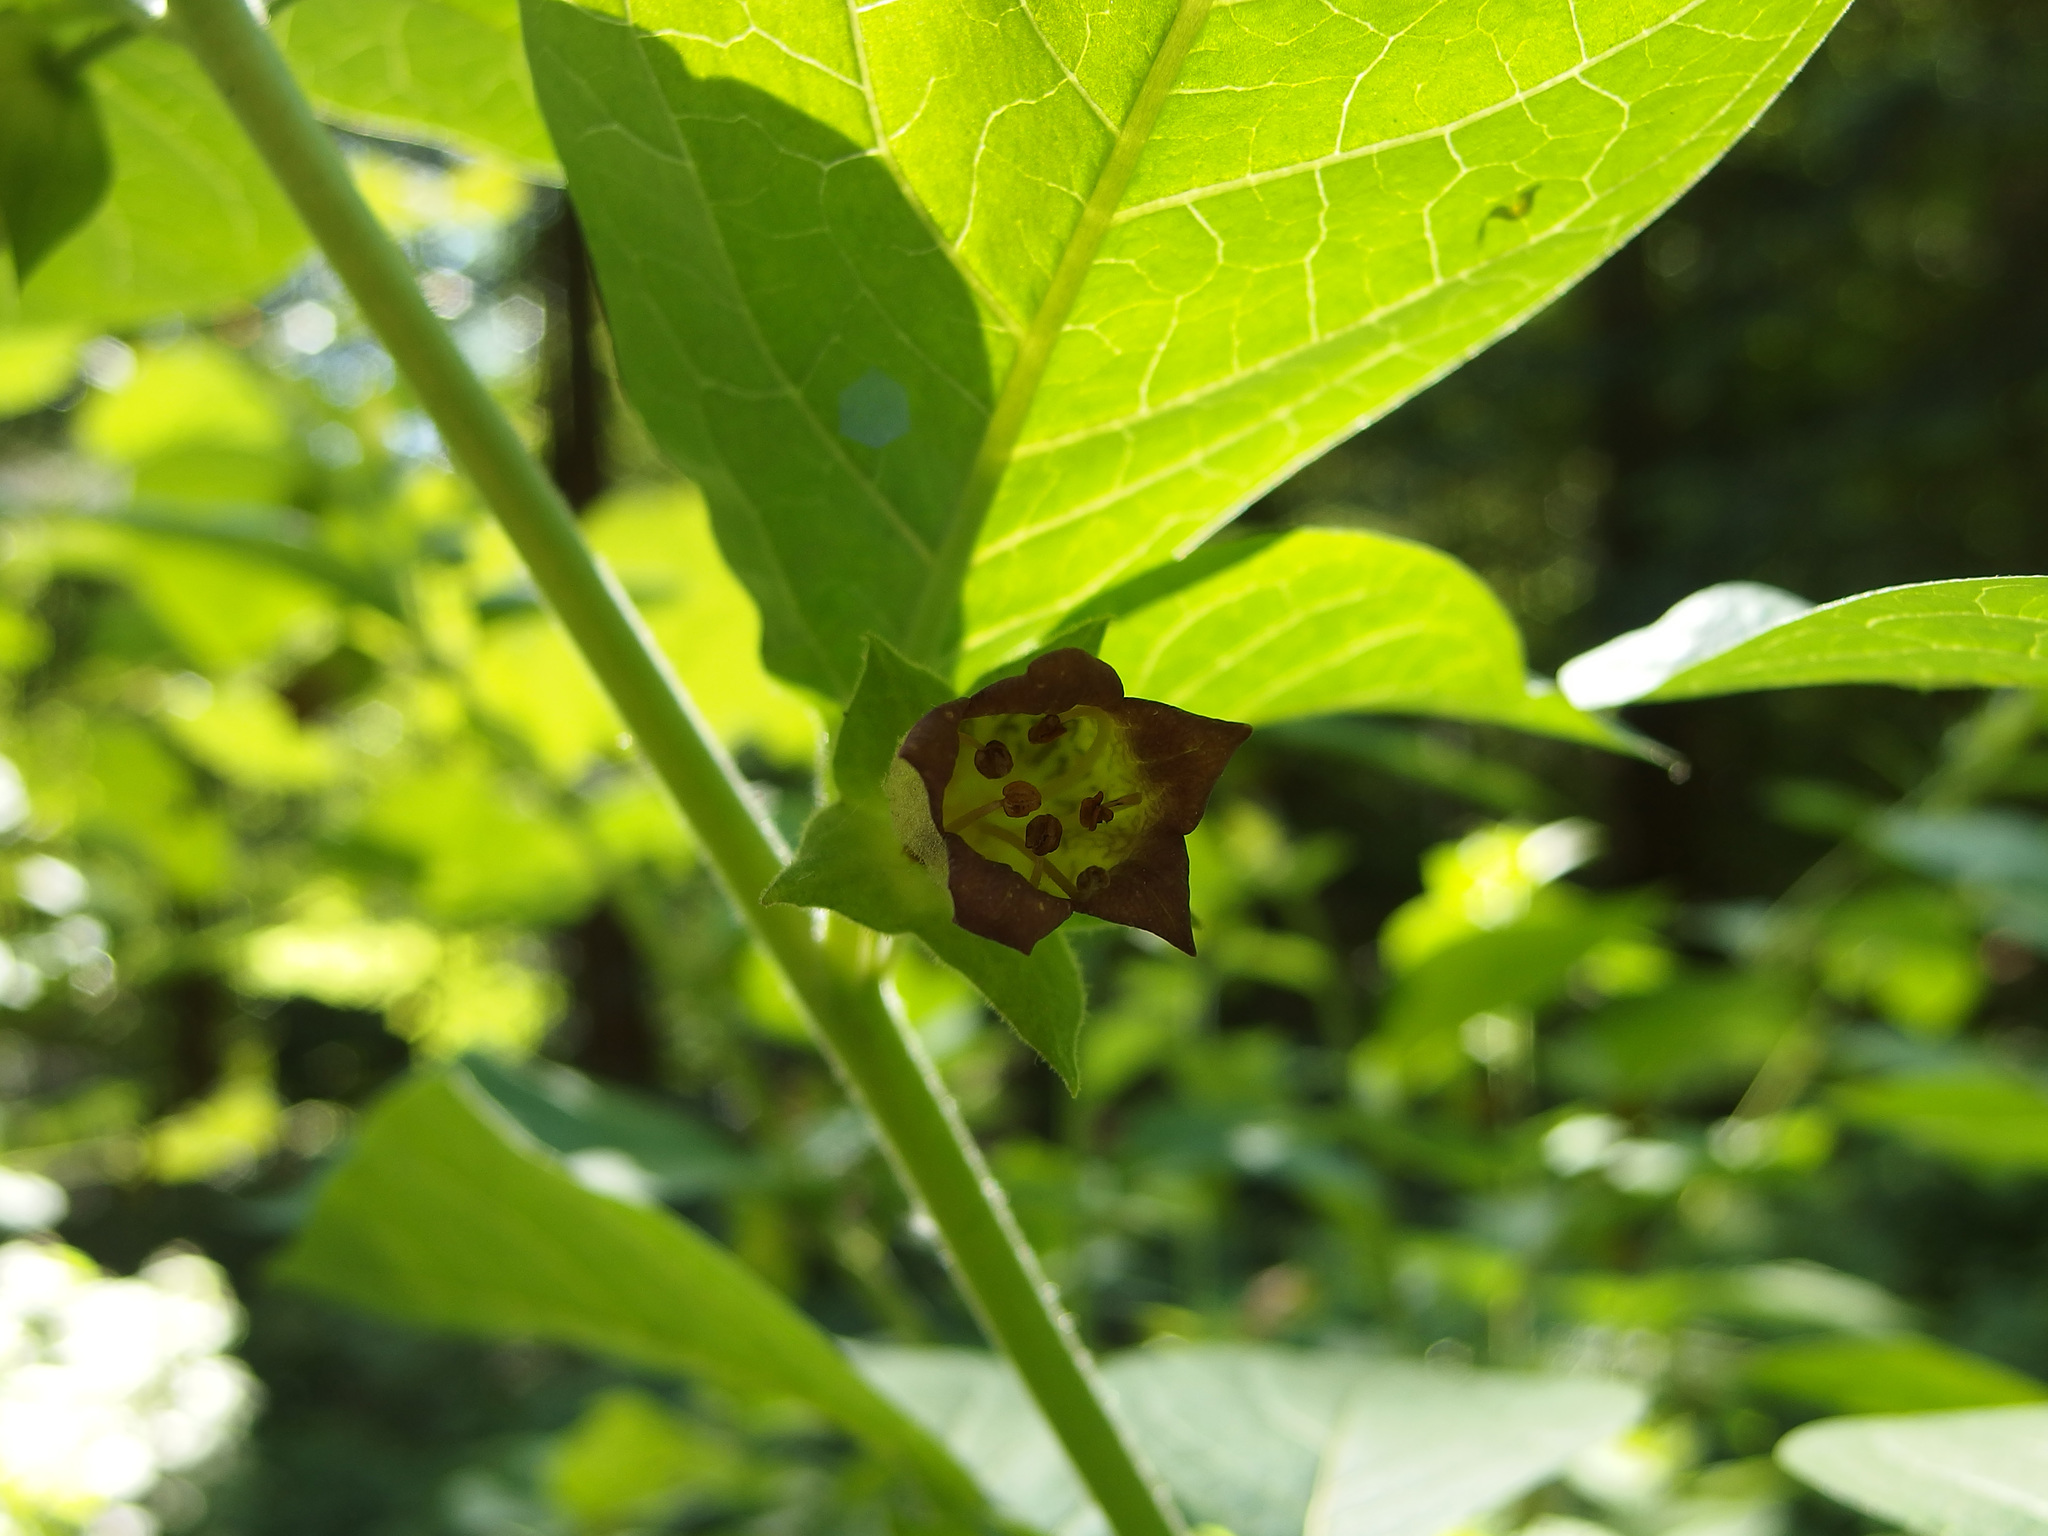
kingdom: Plantae
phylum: Tracheophyta
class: Magnoliopsida
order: Solanales
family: Solanaceae
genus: Atropa
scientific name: Atropa belladonna
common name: Deadly nightshade
